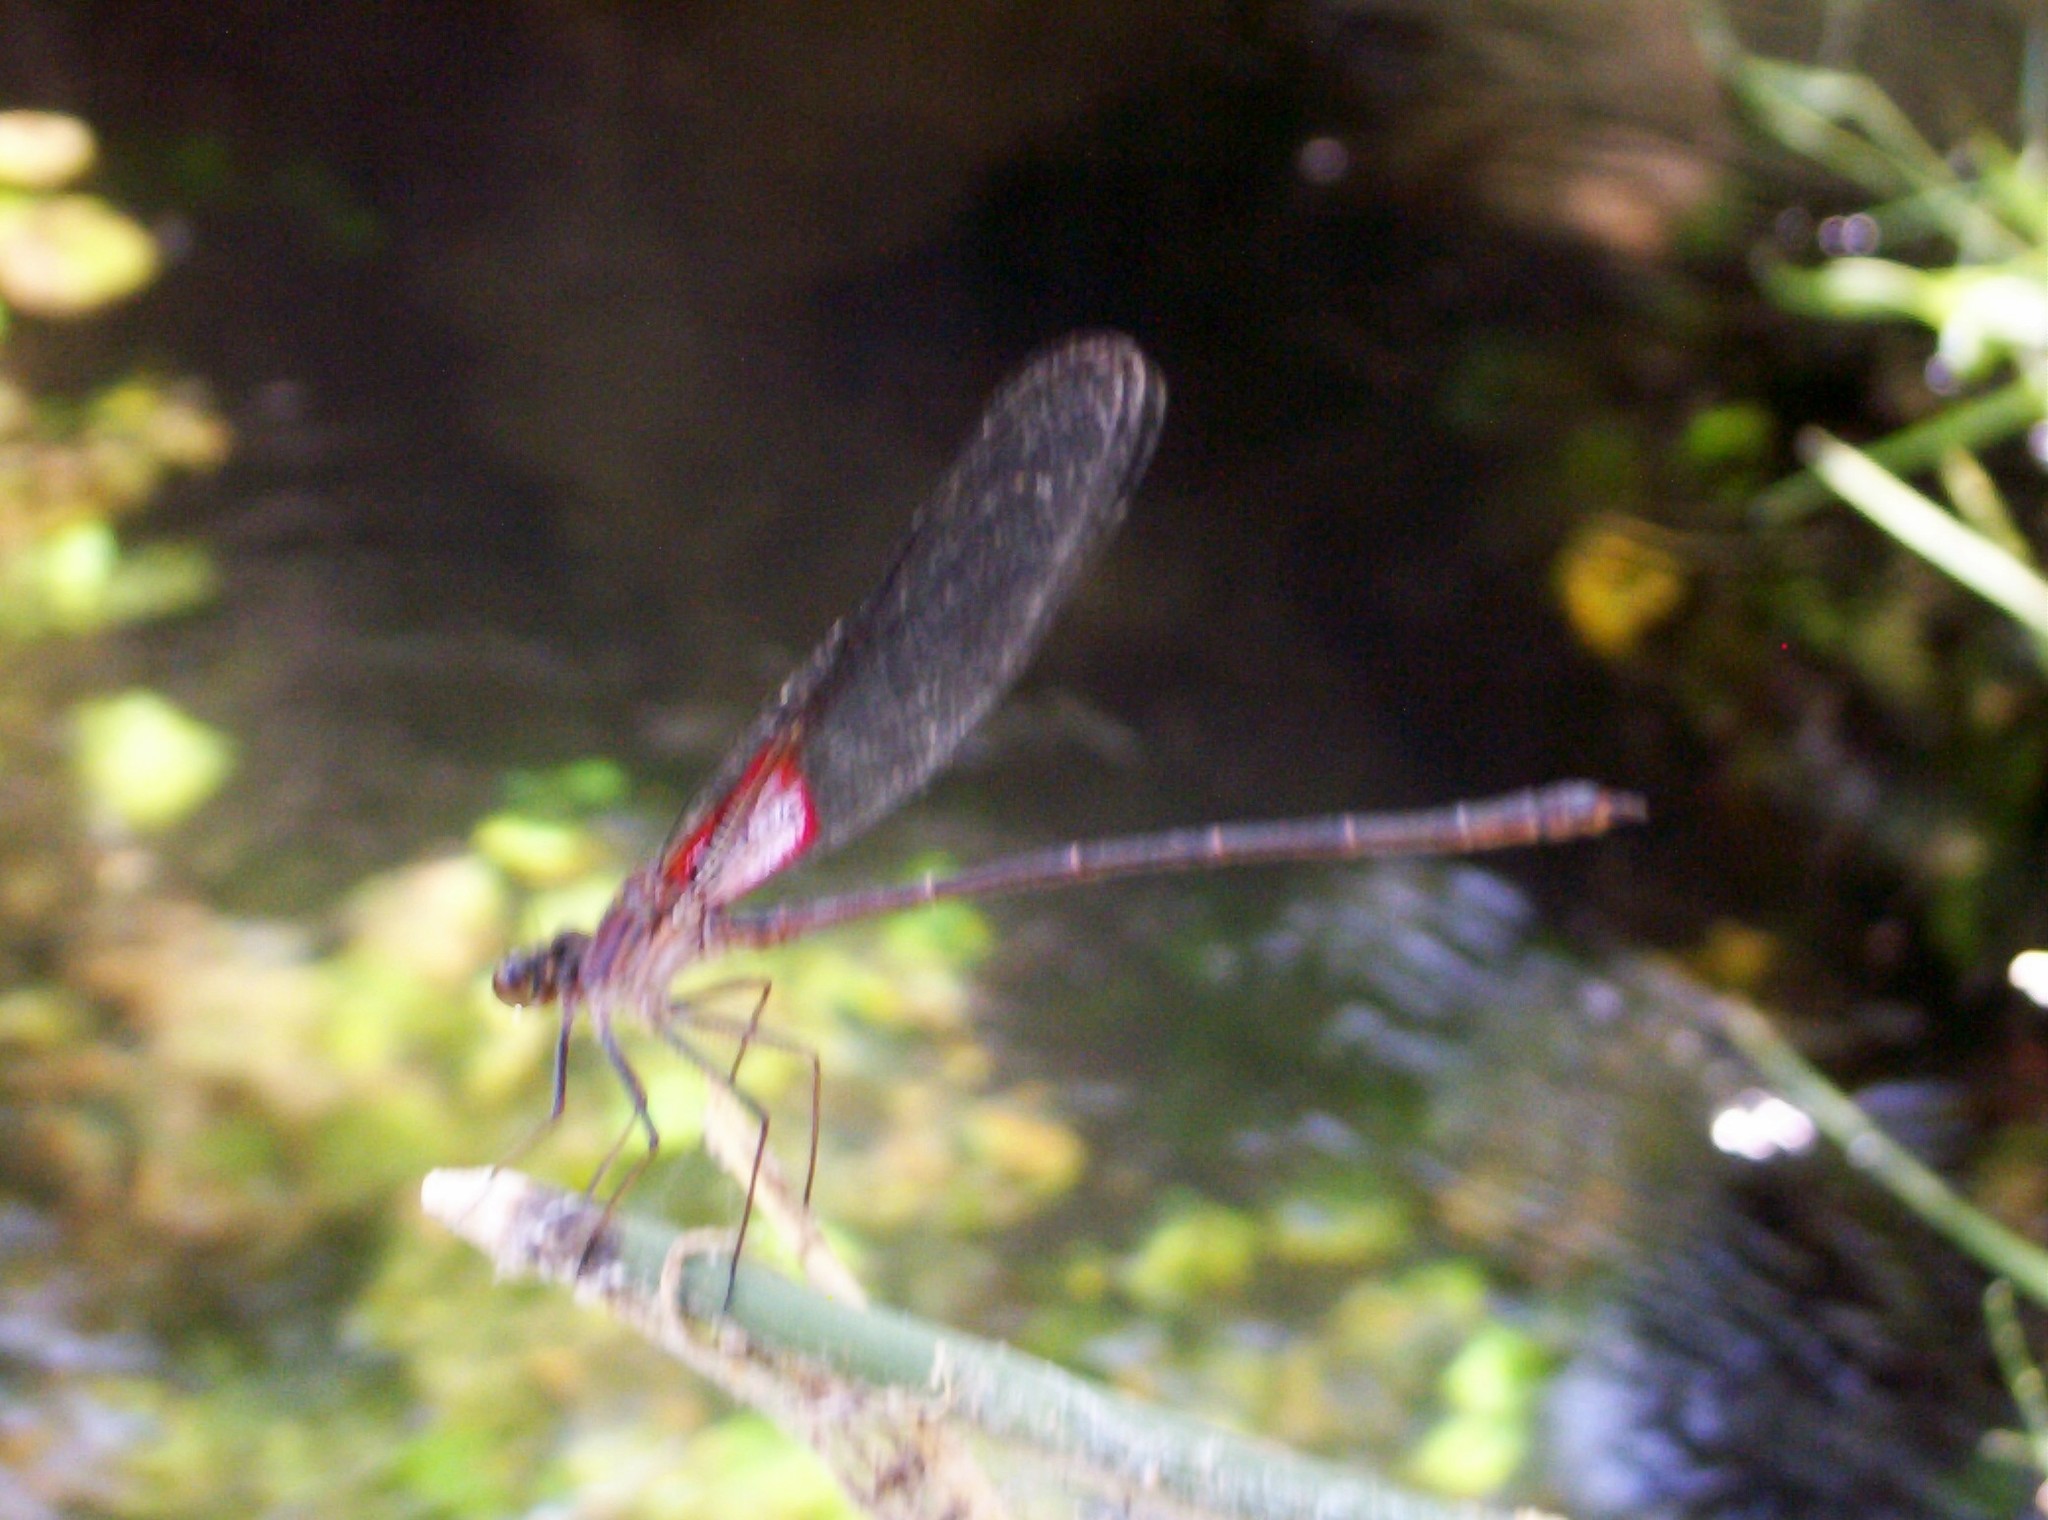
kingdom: Animalia
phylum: Arthropoda
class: Insecta
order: Odonata
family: Calopterygidae
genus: Hetaerina
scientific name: Hetaerina americana
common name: American rubyspot
